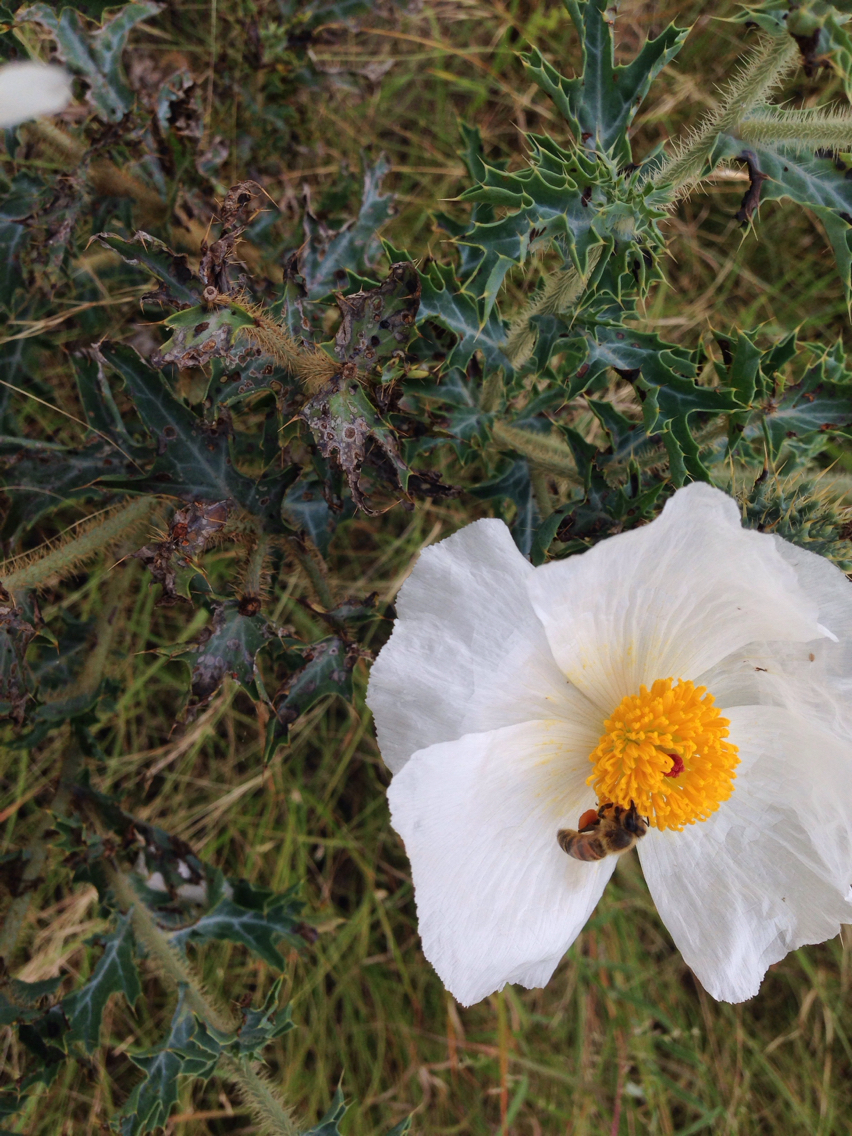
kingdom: Animalia
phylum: Arthropoda
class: Insecta
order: Hymenoptera
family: Apidae
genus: Apis
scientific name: Apis mellifera
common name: Honey bee
